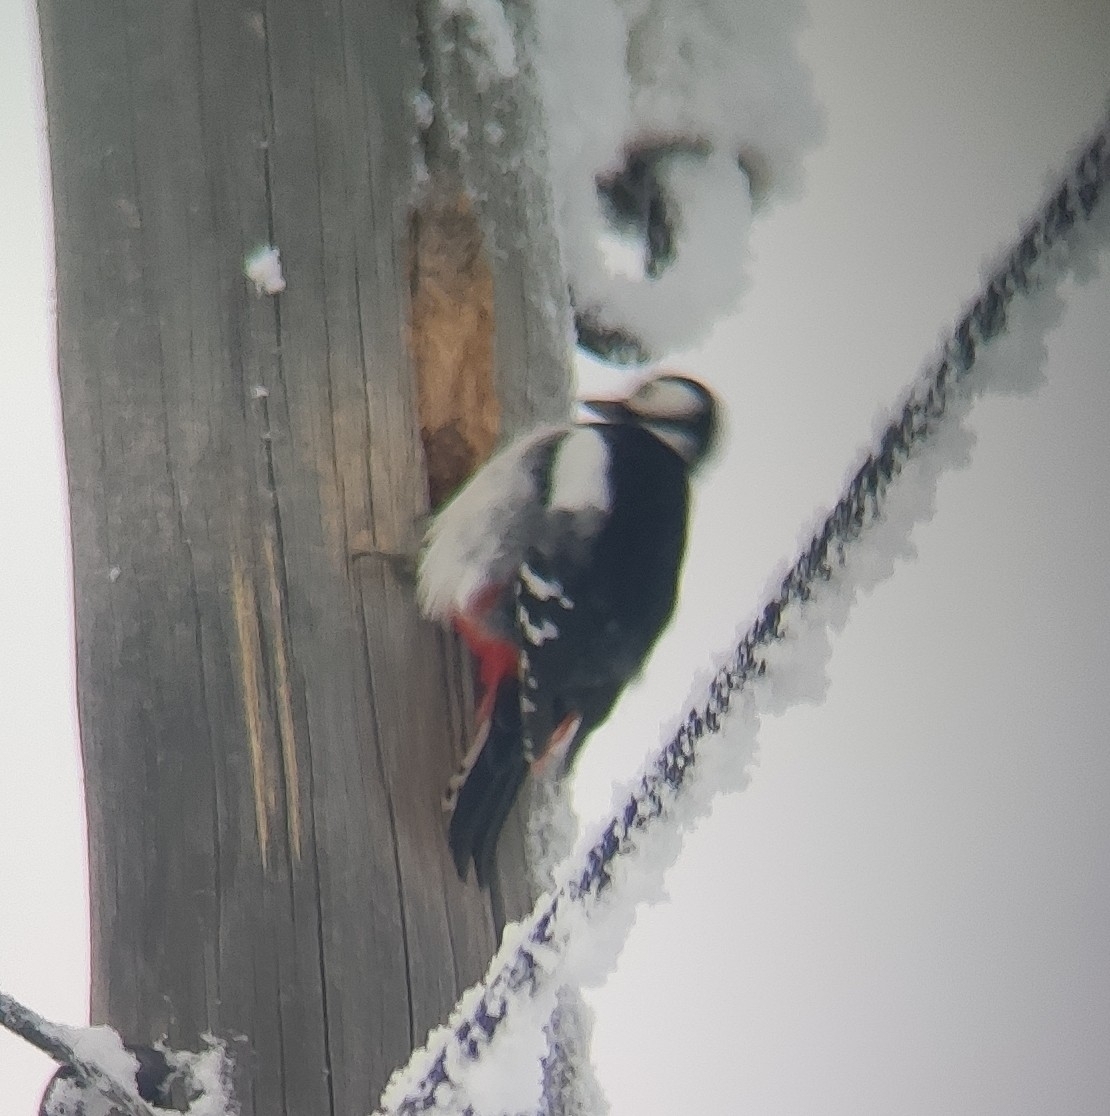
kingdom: Animalia
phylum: Chordata
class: Aves
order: Piciformes
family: Picidae
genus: Dendrocopos
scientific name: Dendrocopos major
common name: Great spotted woodpecker
